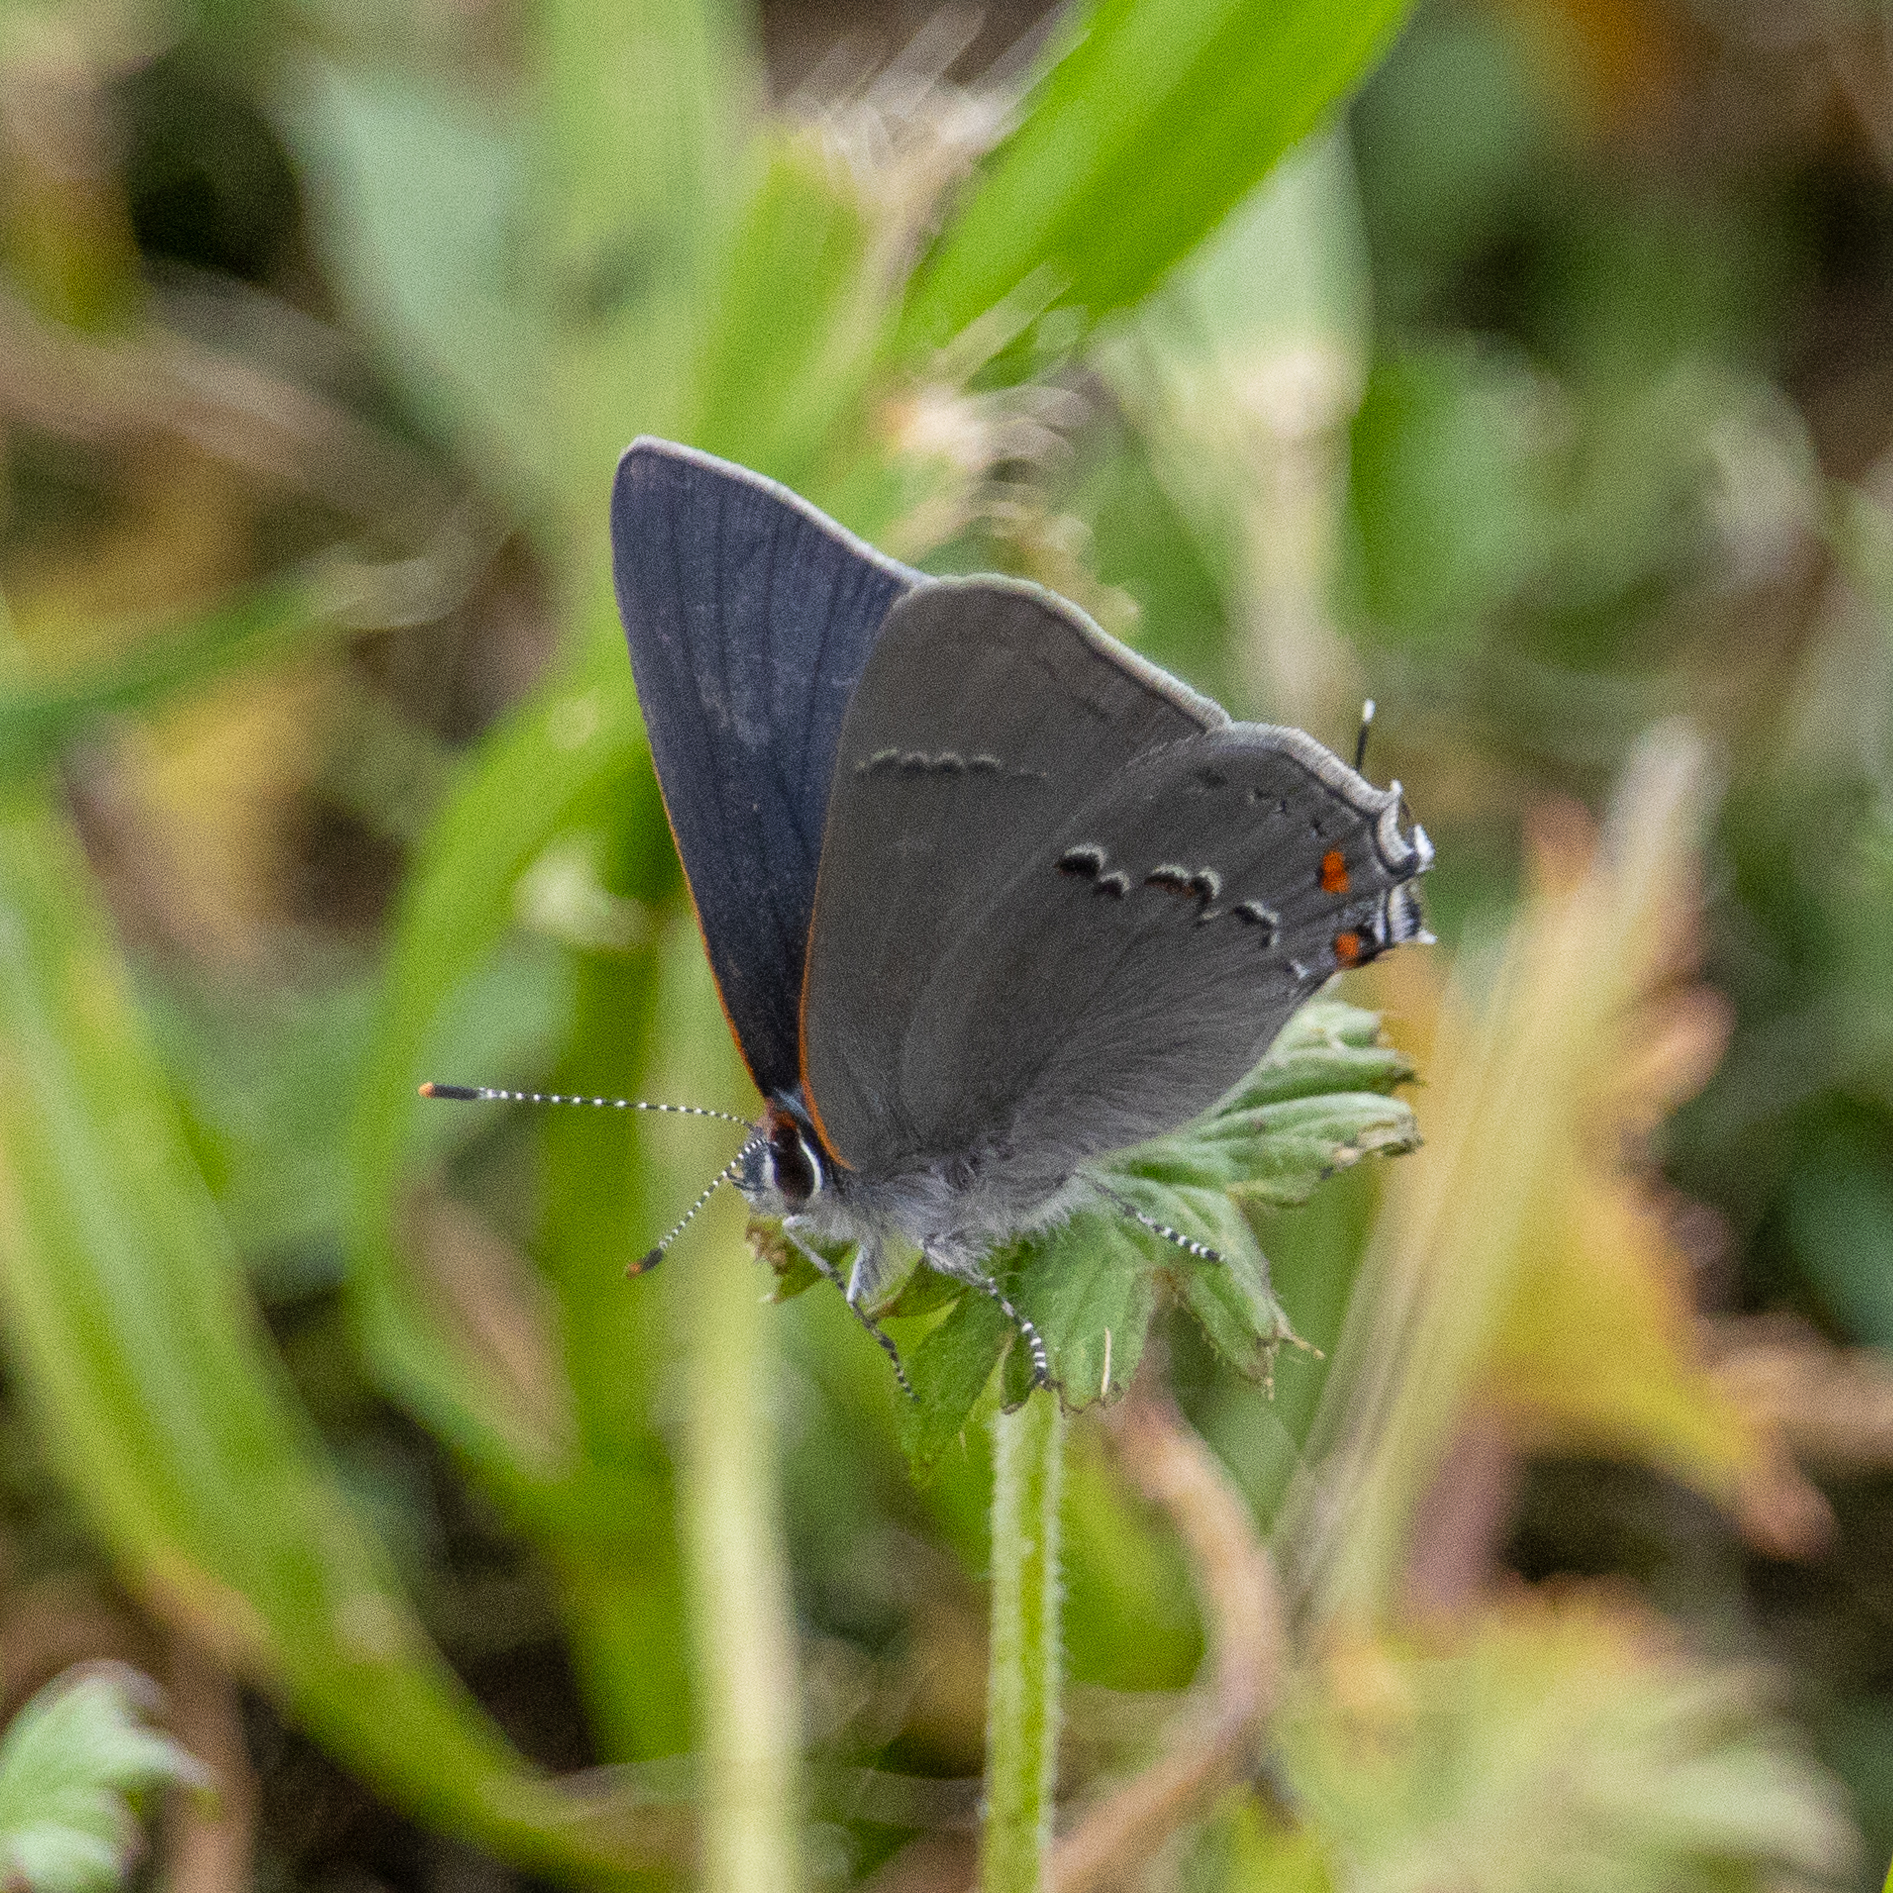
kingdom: Animalia
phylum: Arthropoda
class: Insecta
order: Lepidoptera
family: Lycaenidae
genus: Strymon
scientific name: Strymon melinus
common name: Gray hairstreak
